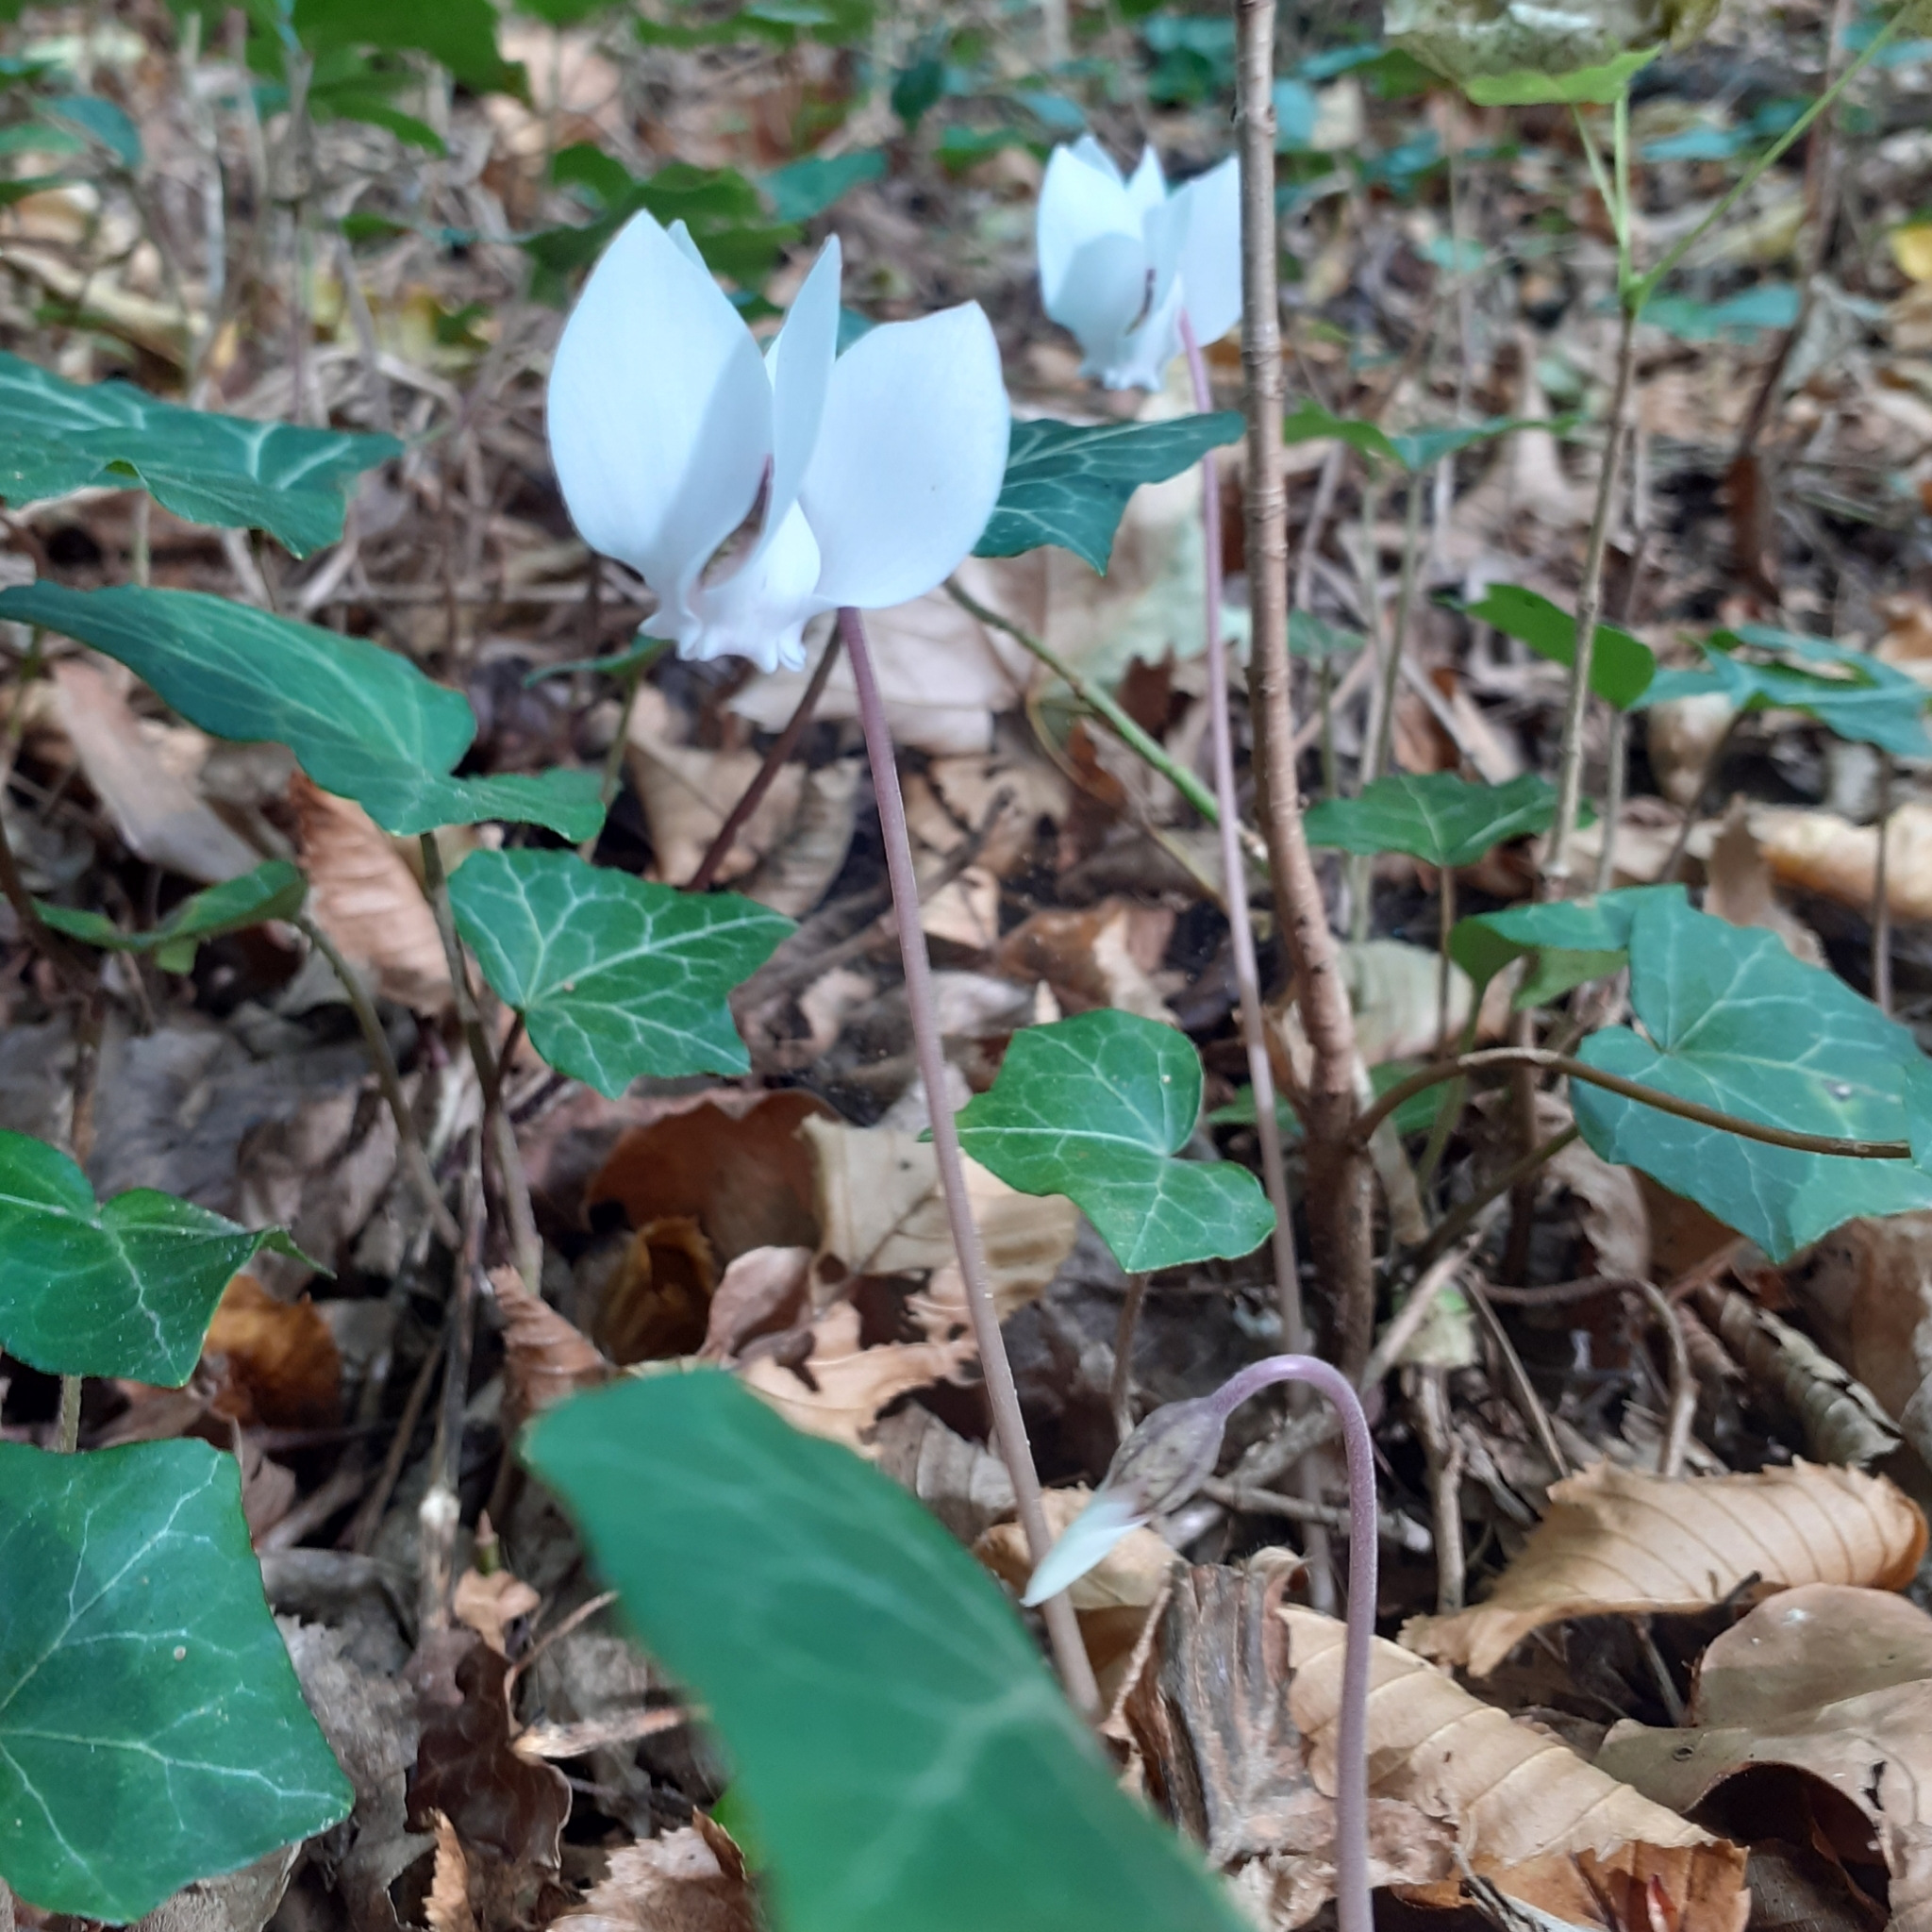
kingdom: Plantae
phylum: Tracheophyta
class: Magnoliopsida
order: Ericales
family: Primulaceae
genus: Cyclamen
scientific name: Cyclamen hederifolium
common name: Sowbread
